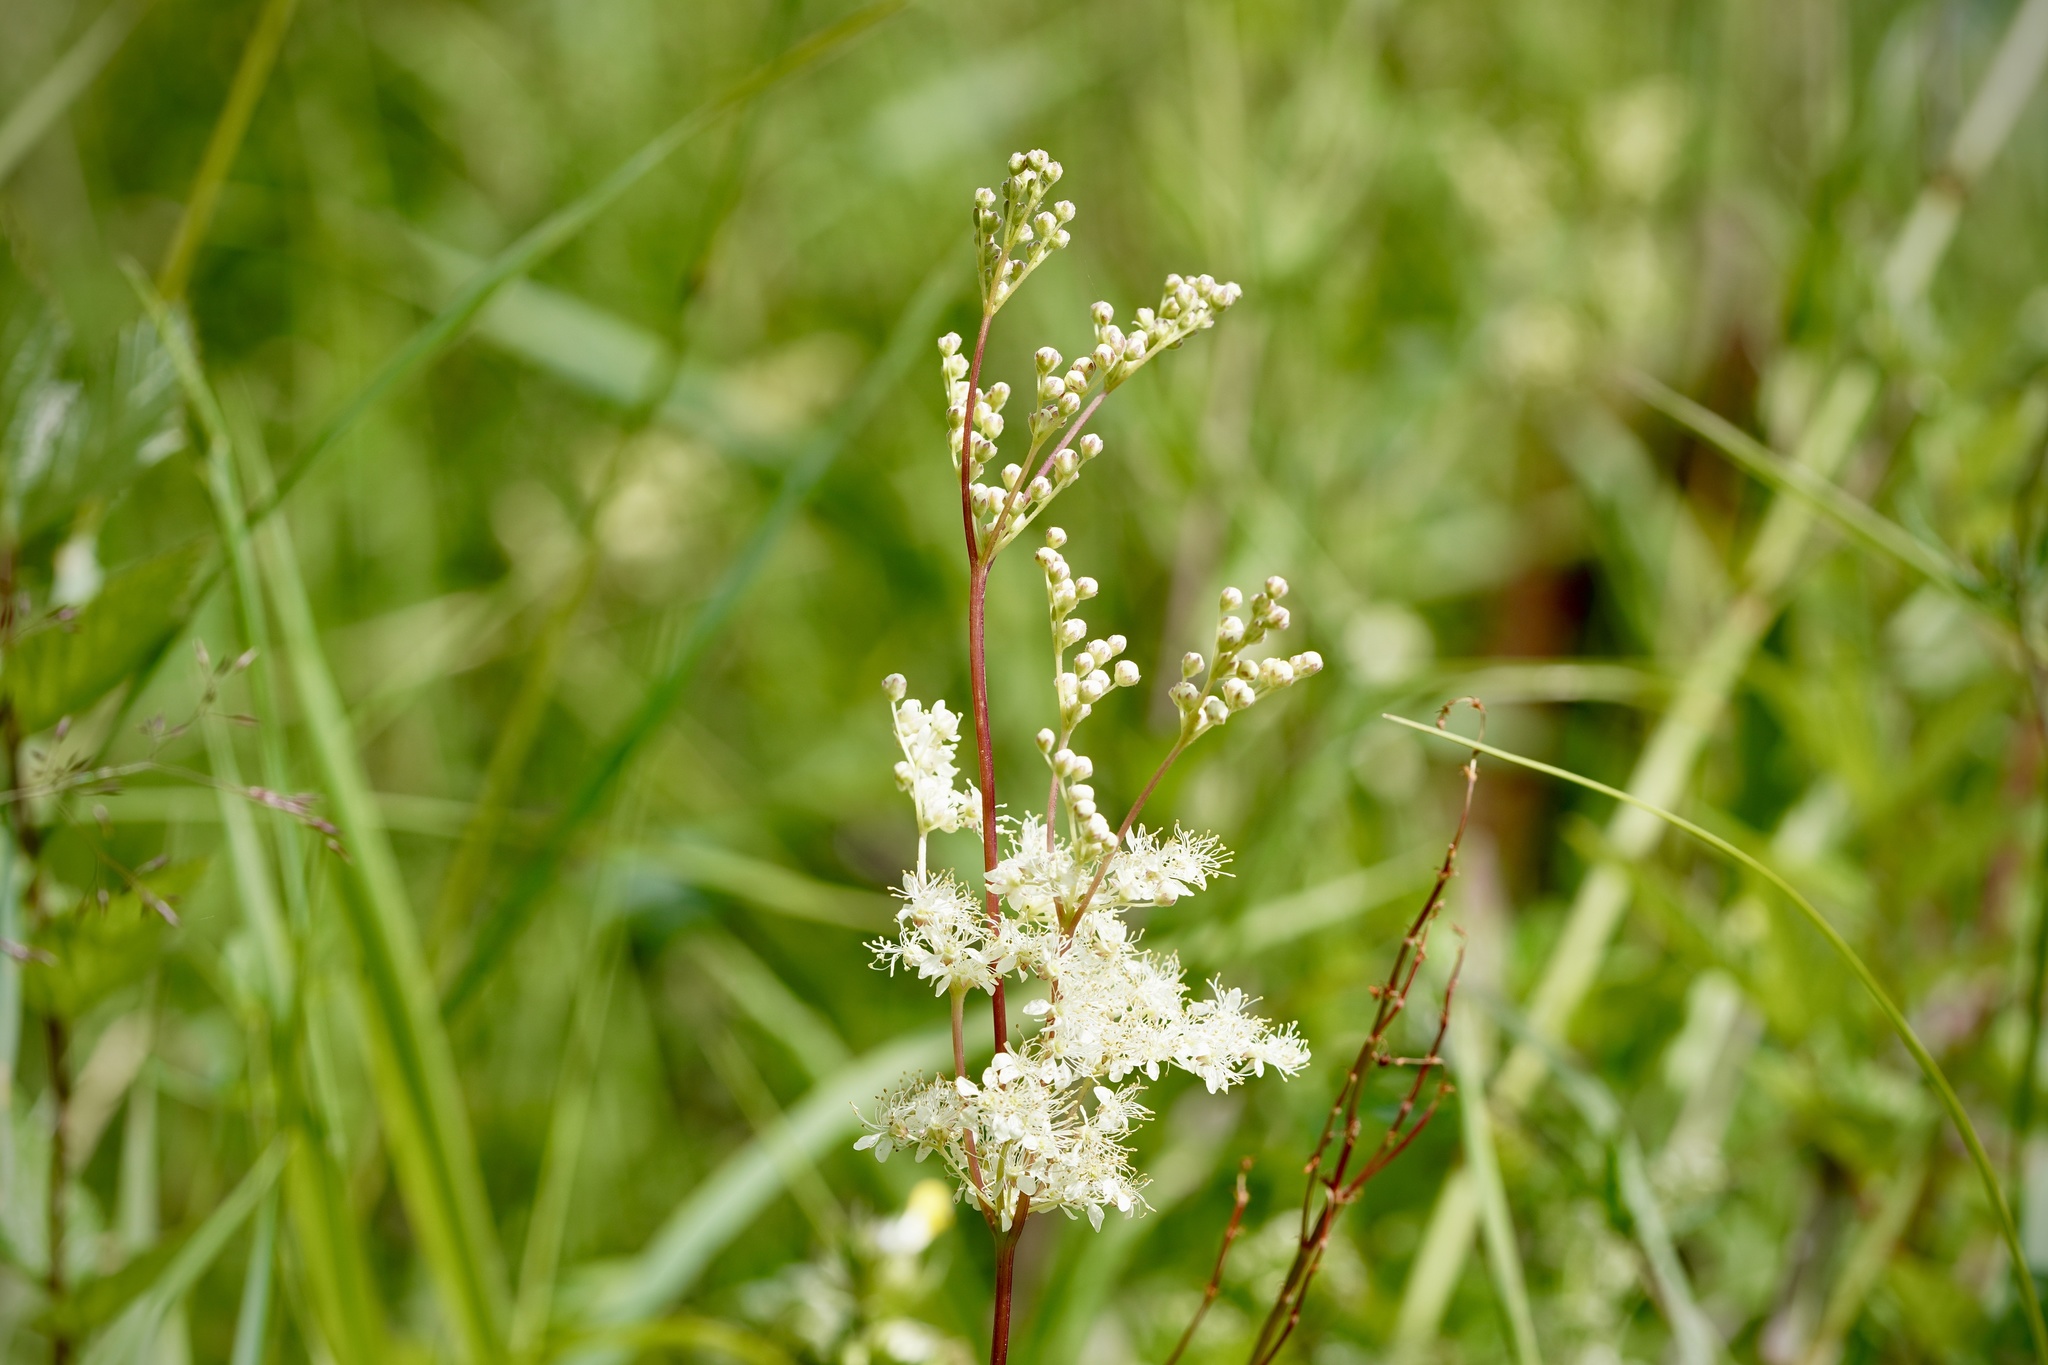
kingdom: Plantae
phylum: Tracheophyta
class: Magnoliopsida
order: Rosales
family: Rosaceae
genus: Filipendula
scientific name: Filipendula ulmaria
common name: Meadowsweet
